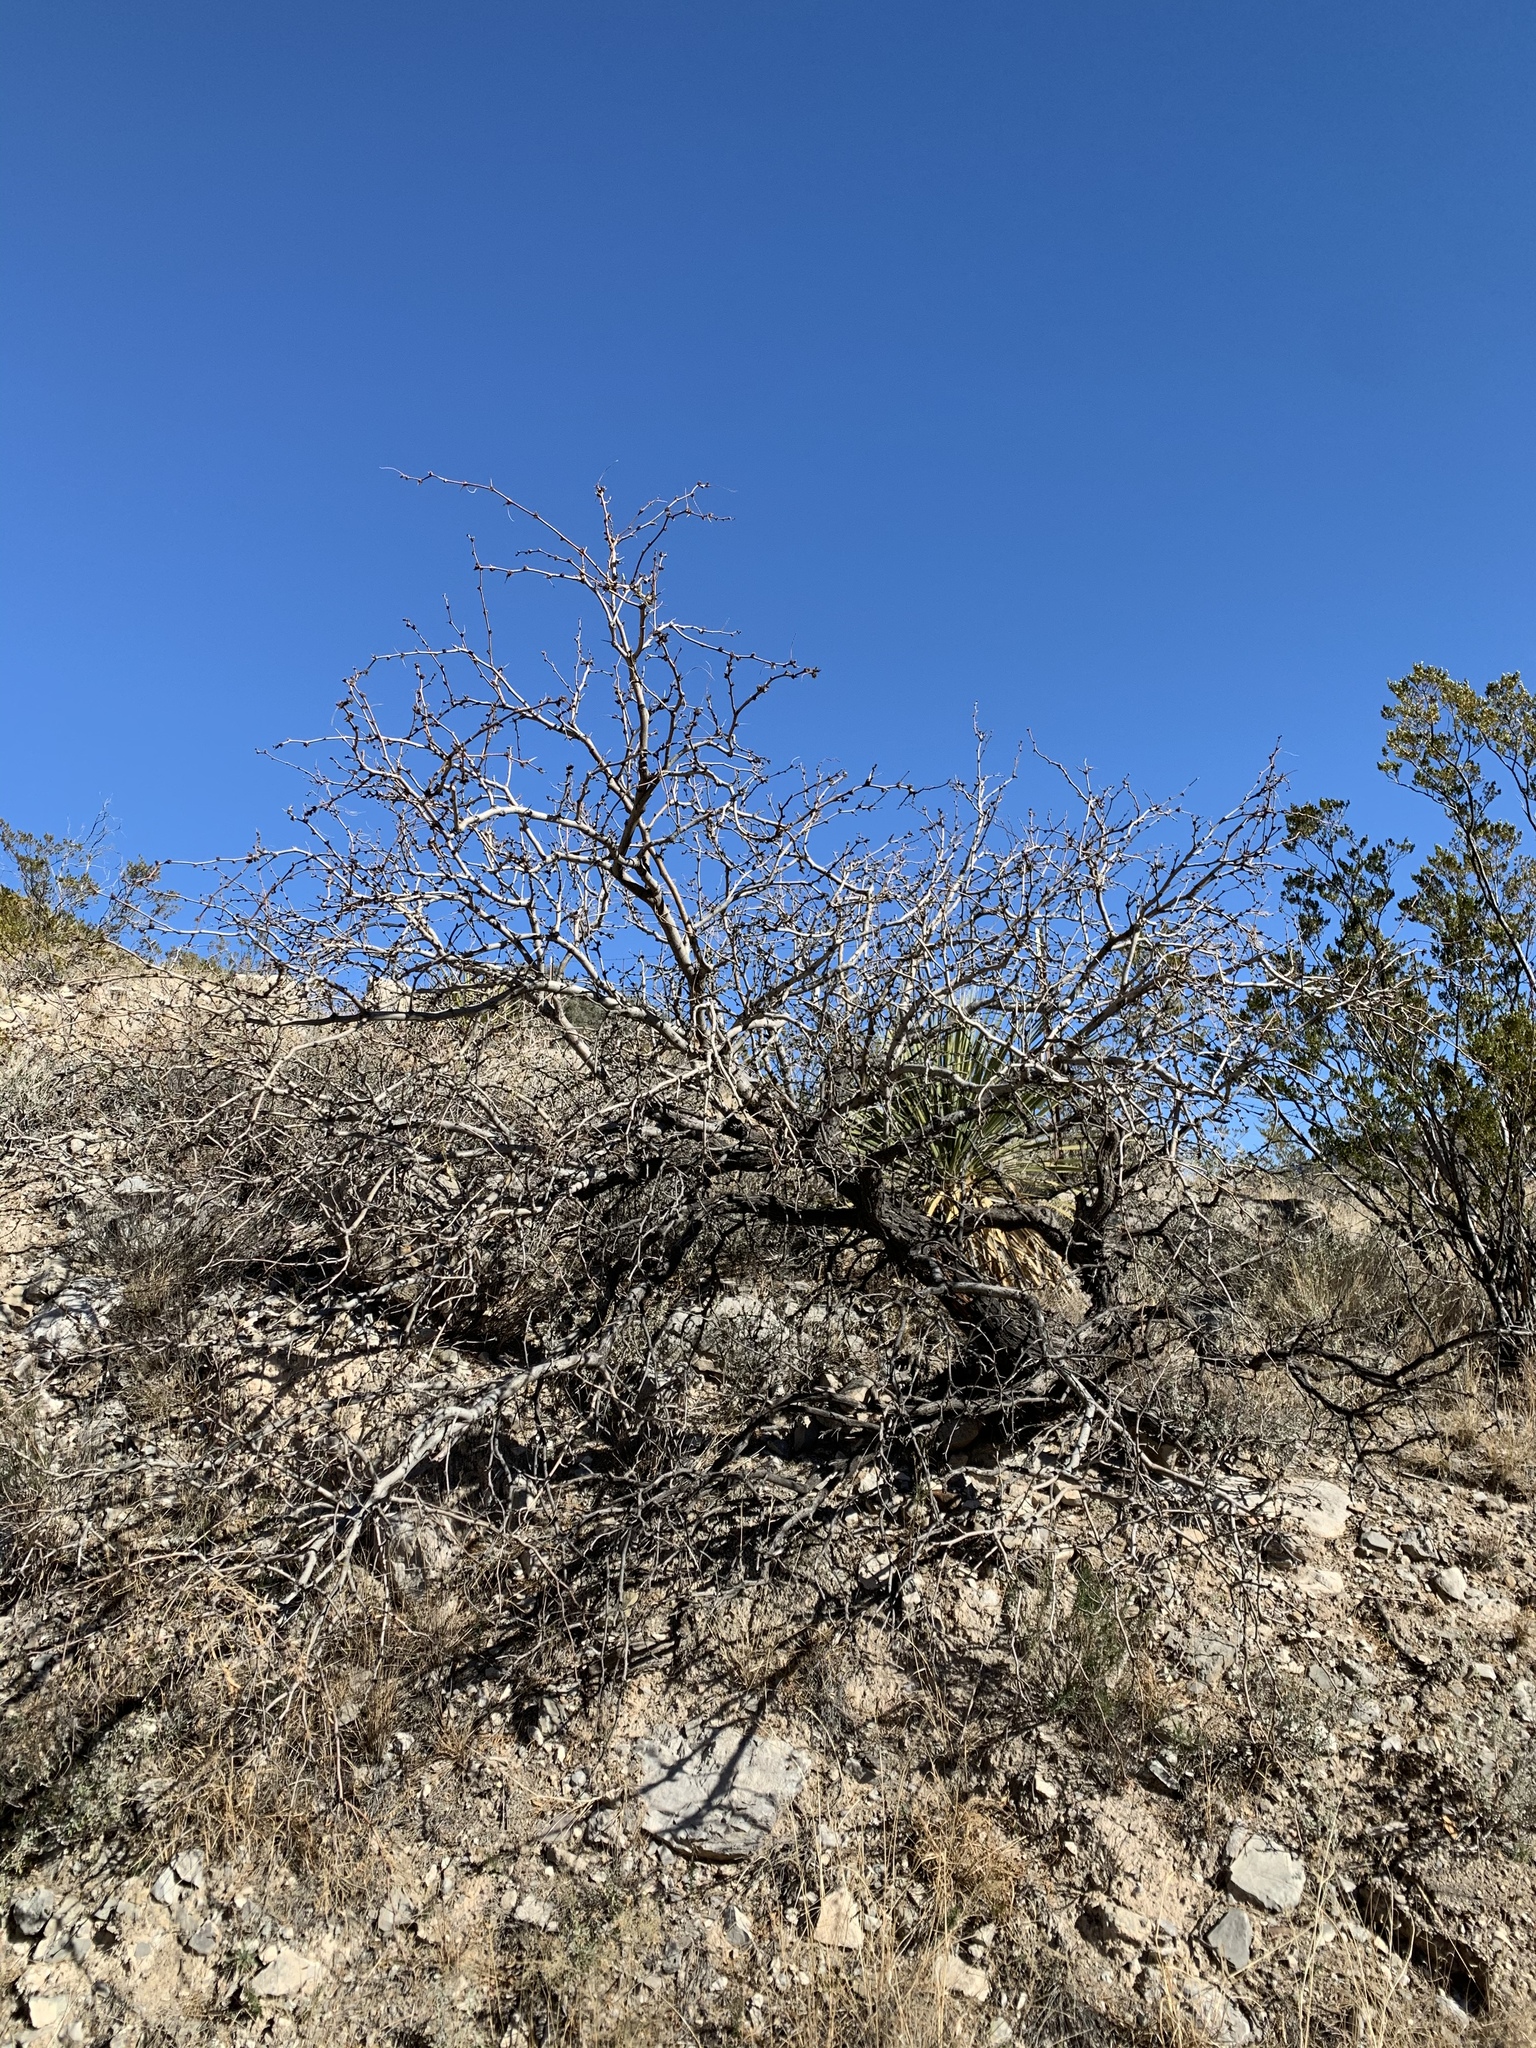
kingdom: Plantae
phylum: Tracheophyta
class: Magnoliopsida
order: Fabales
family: Fabaceae
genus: Prosopis
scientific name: Prosopis glandulosa
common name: Honey mesquite
